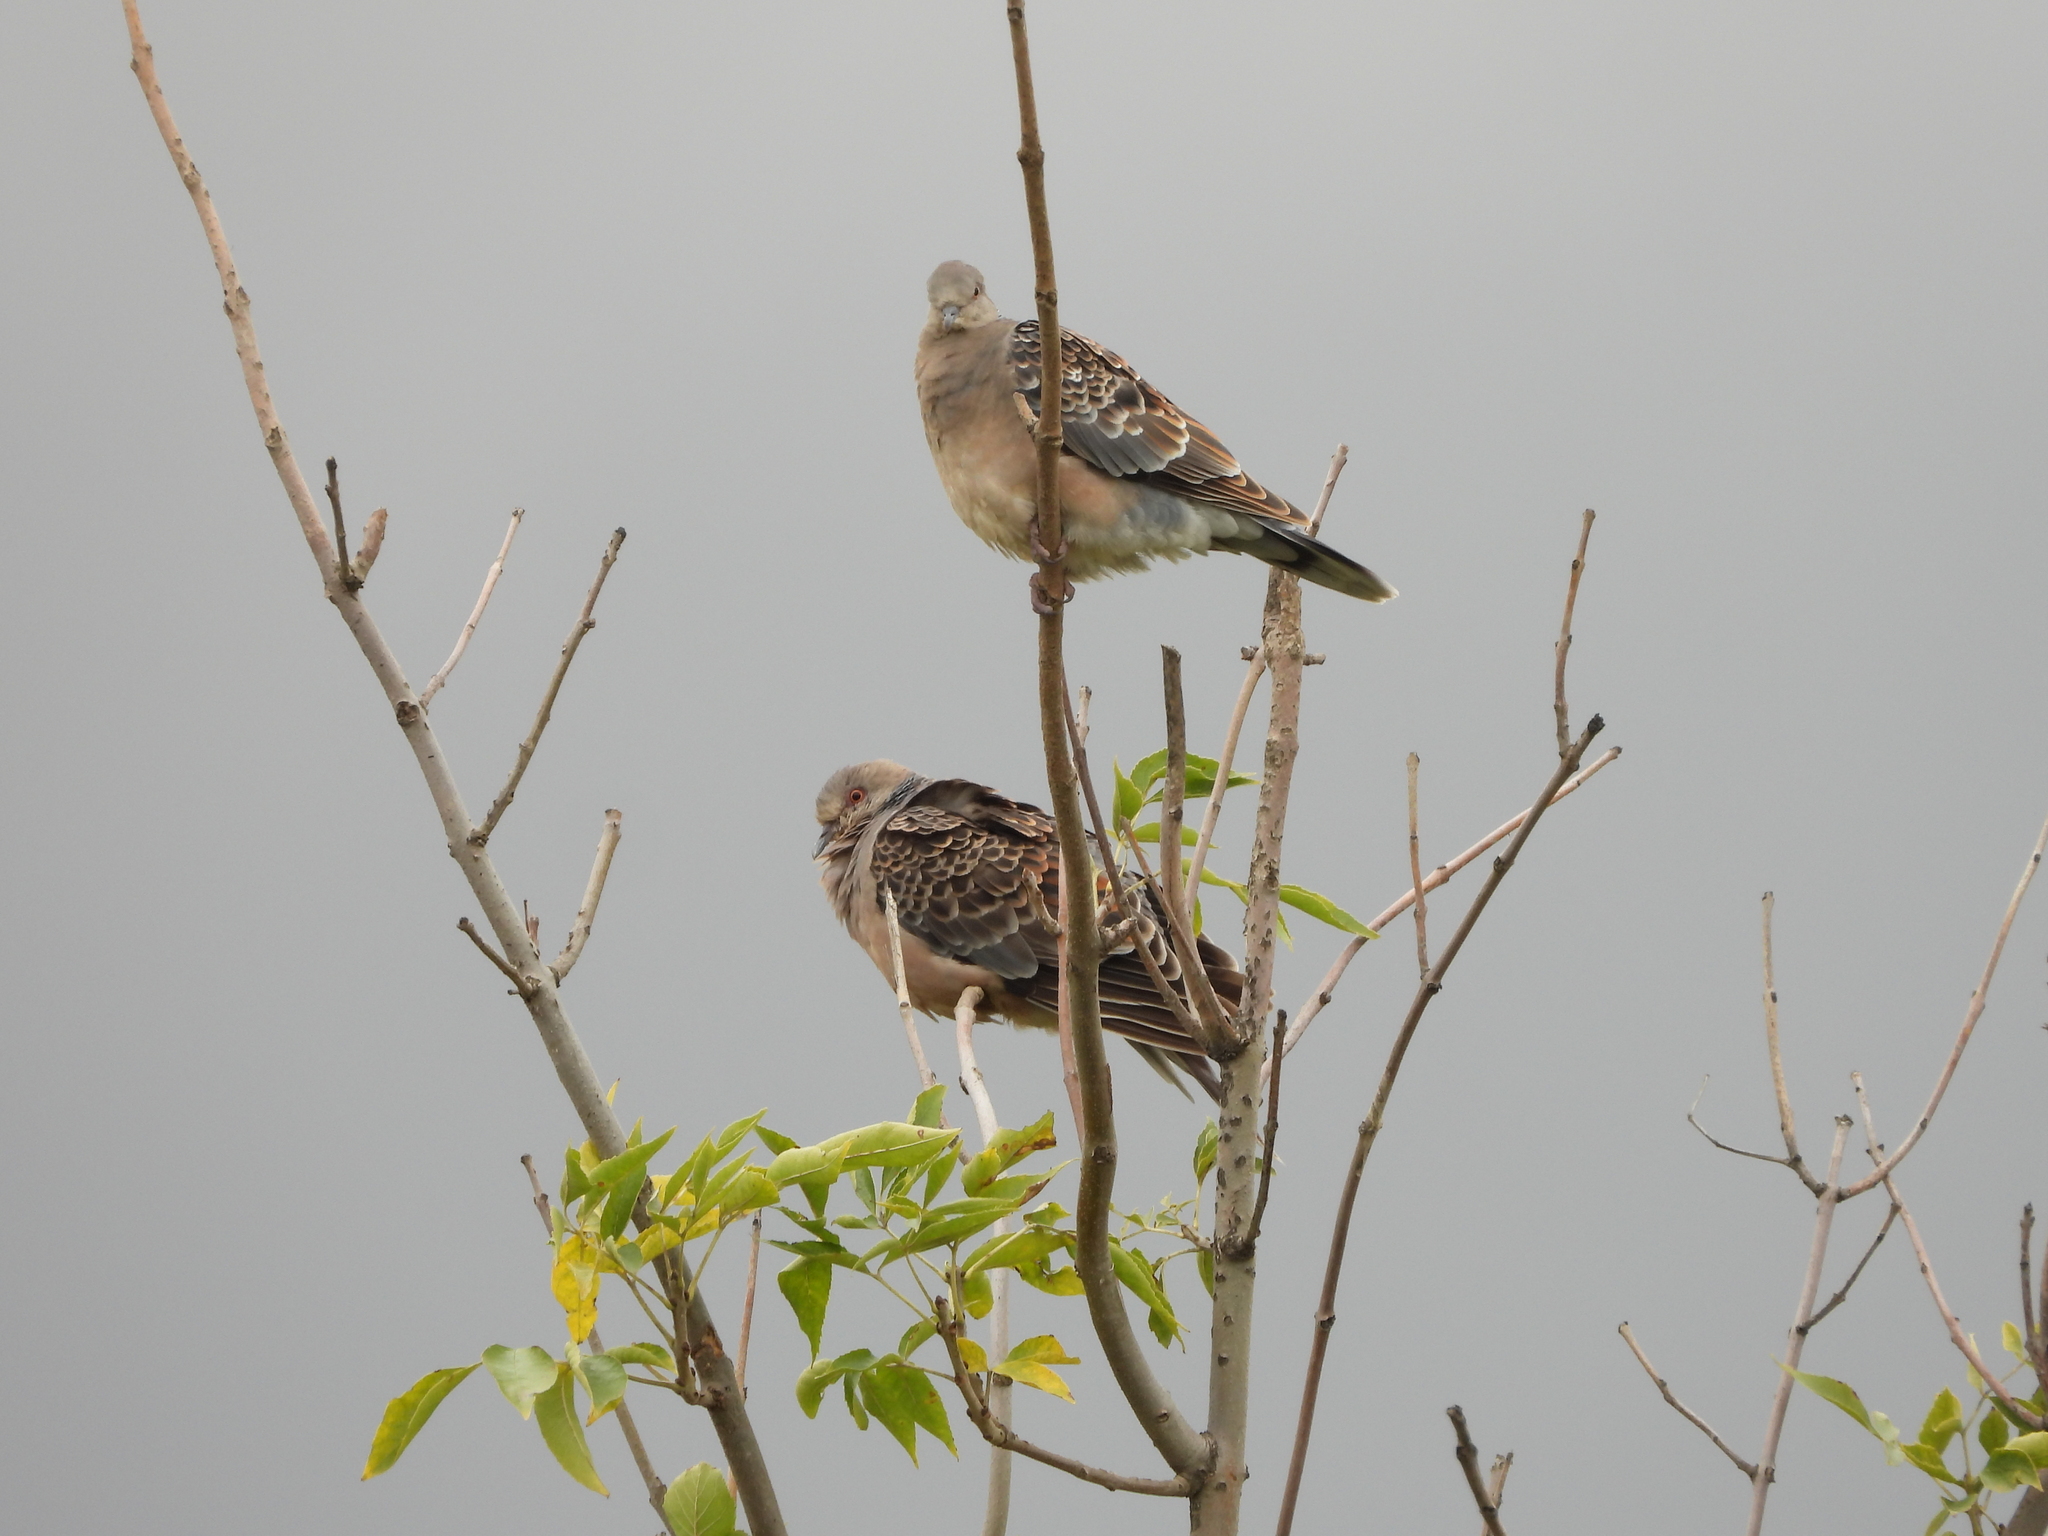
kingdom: Animalia
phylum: Chordata
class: Aves
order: Columbiformes
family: Columbidae
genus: Streptopelia
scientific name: Streptopelia orientalis
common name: Oriental turtle dove
